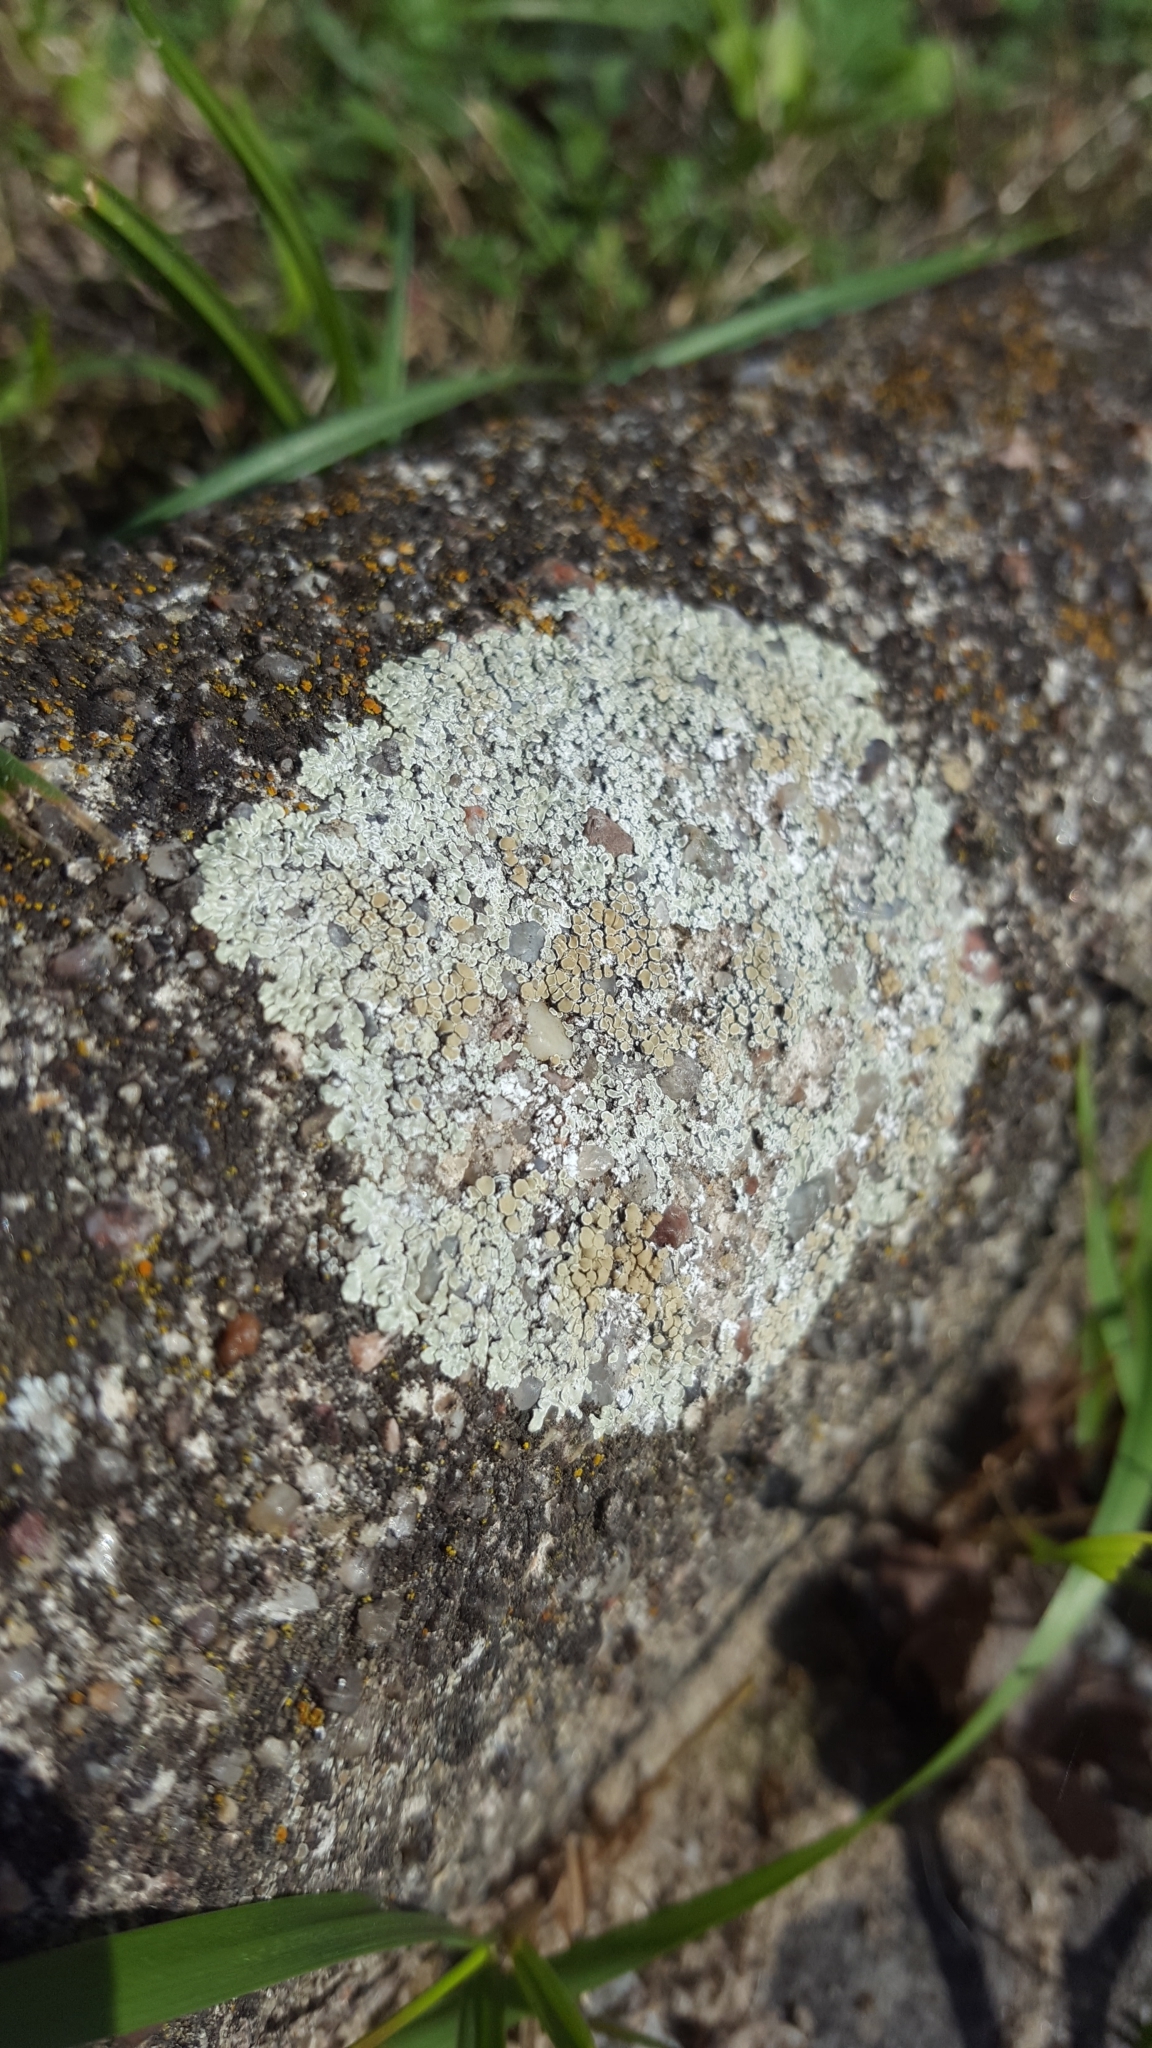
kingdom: Fungi
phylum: Ascomycota
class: Lecanoromycetes
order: Lecanorales
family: Lecanoraceae
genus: Protoparmeliopsis
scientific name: Protoparmeliopsis muralis
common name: Stonewall rim lichen
